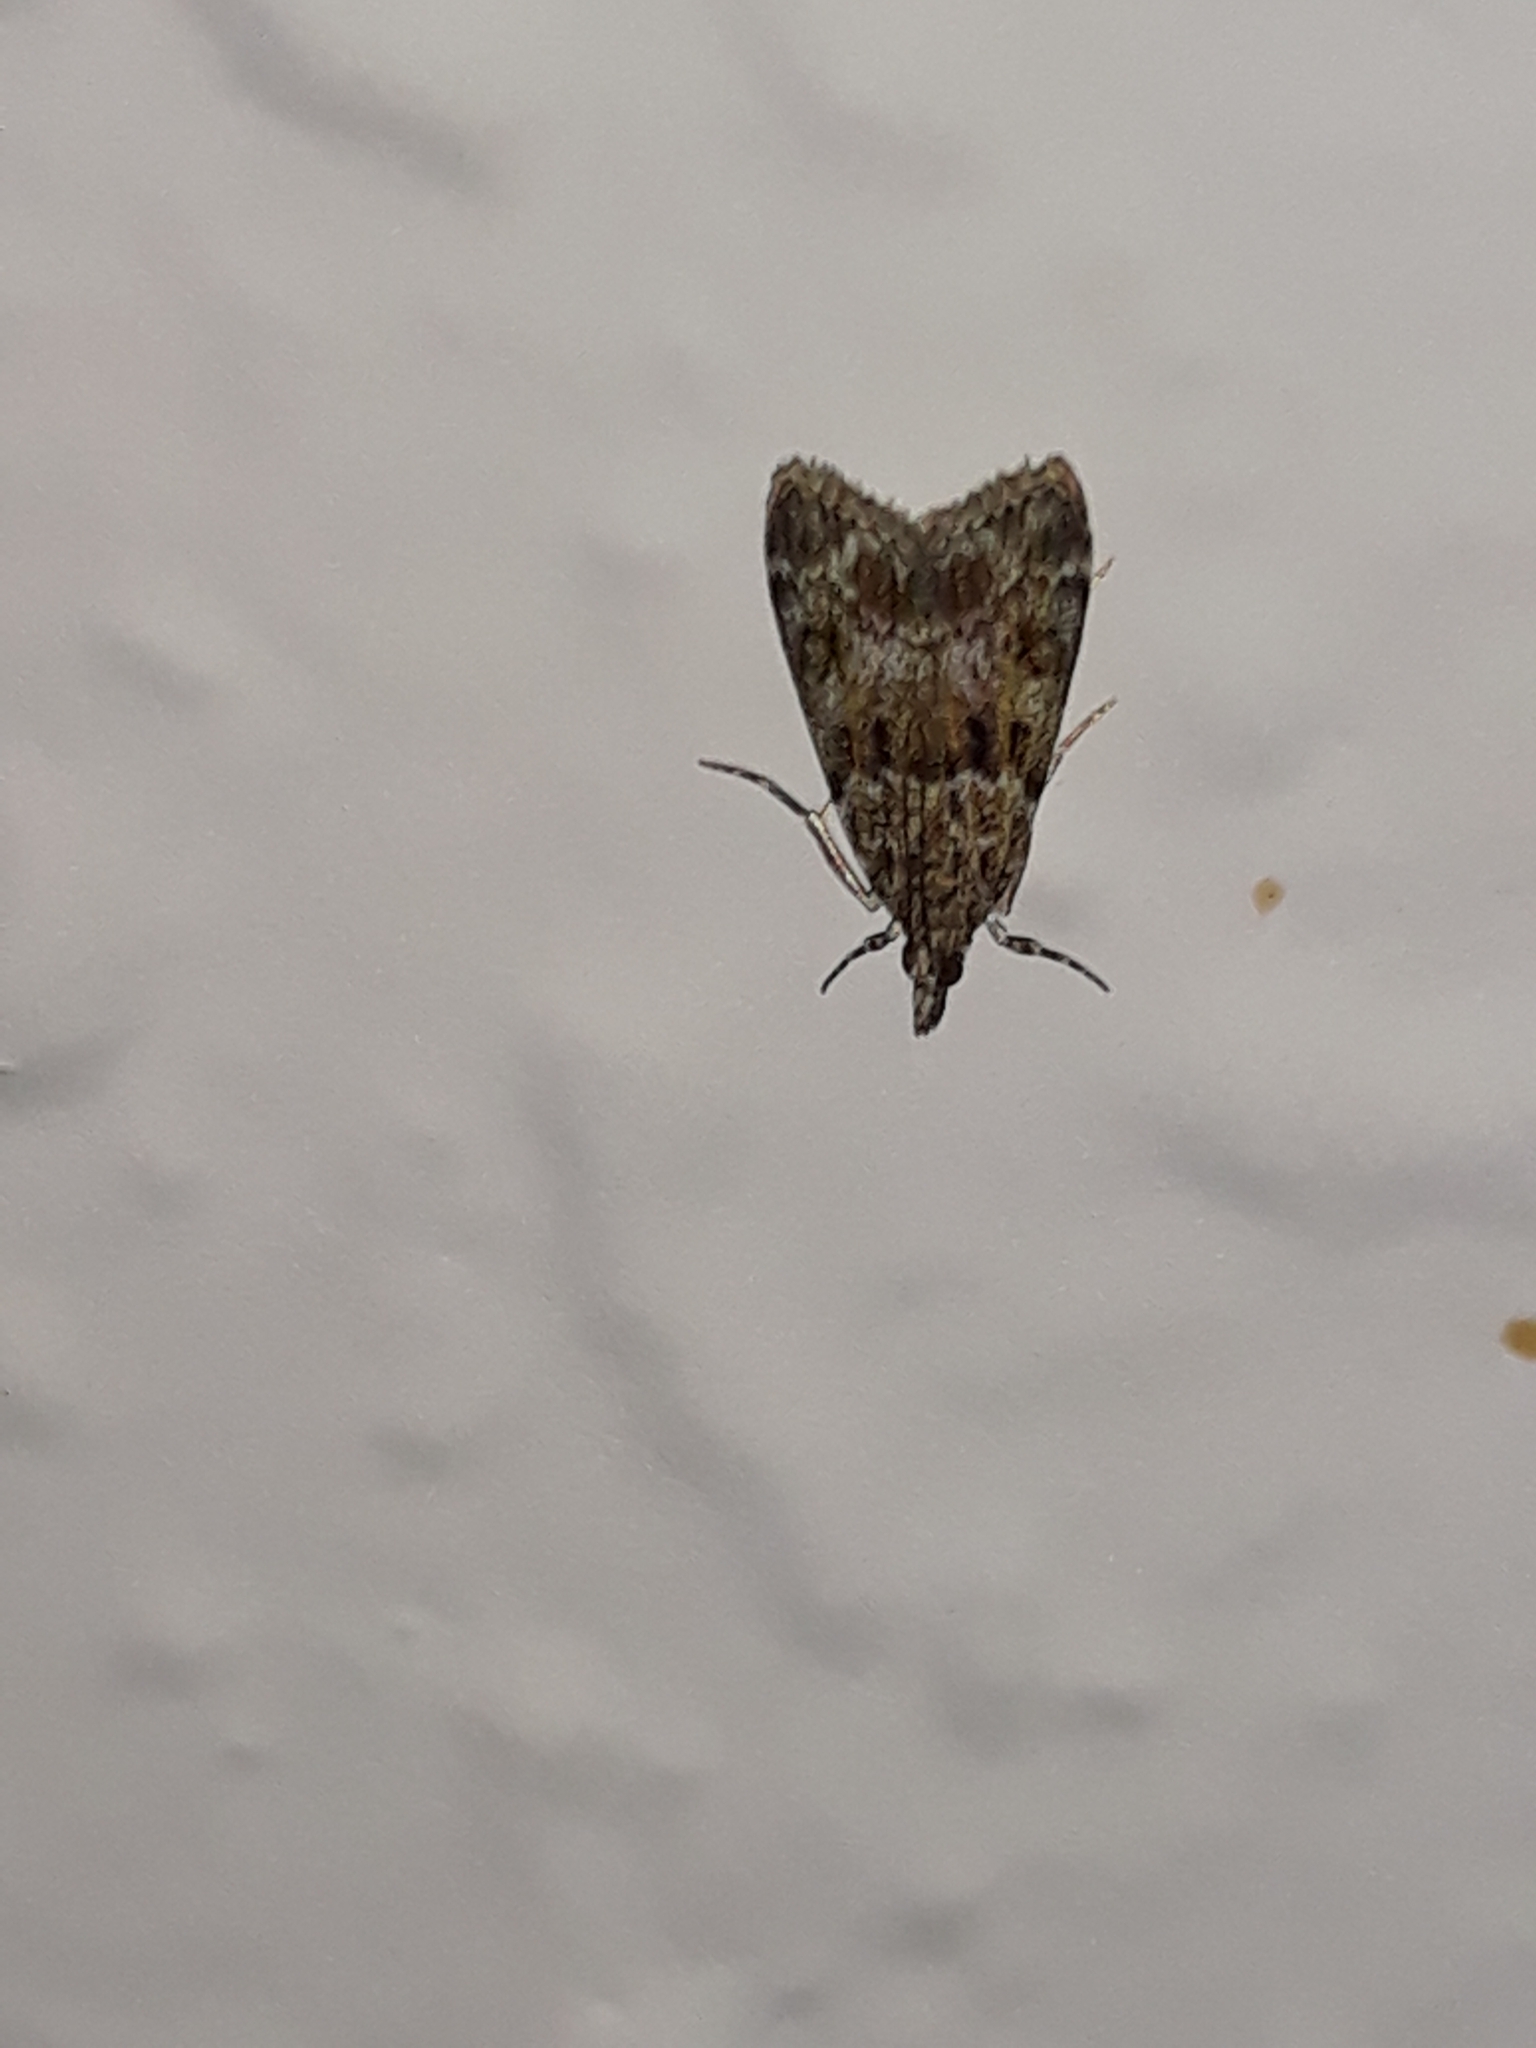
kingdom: Animalia
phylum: Arthropoda
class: Insecta
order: Lepidoptera
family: Crambidae
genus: Eudonia
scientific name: Eudonia mercurella
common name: Small grey
